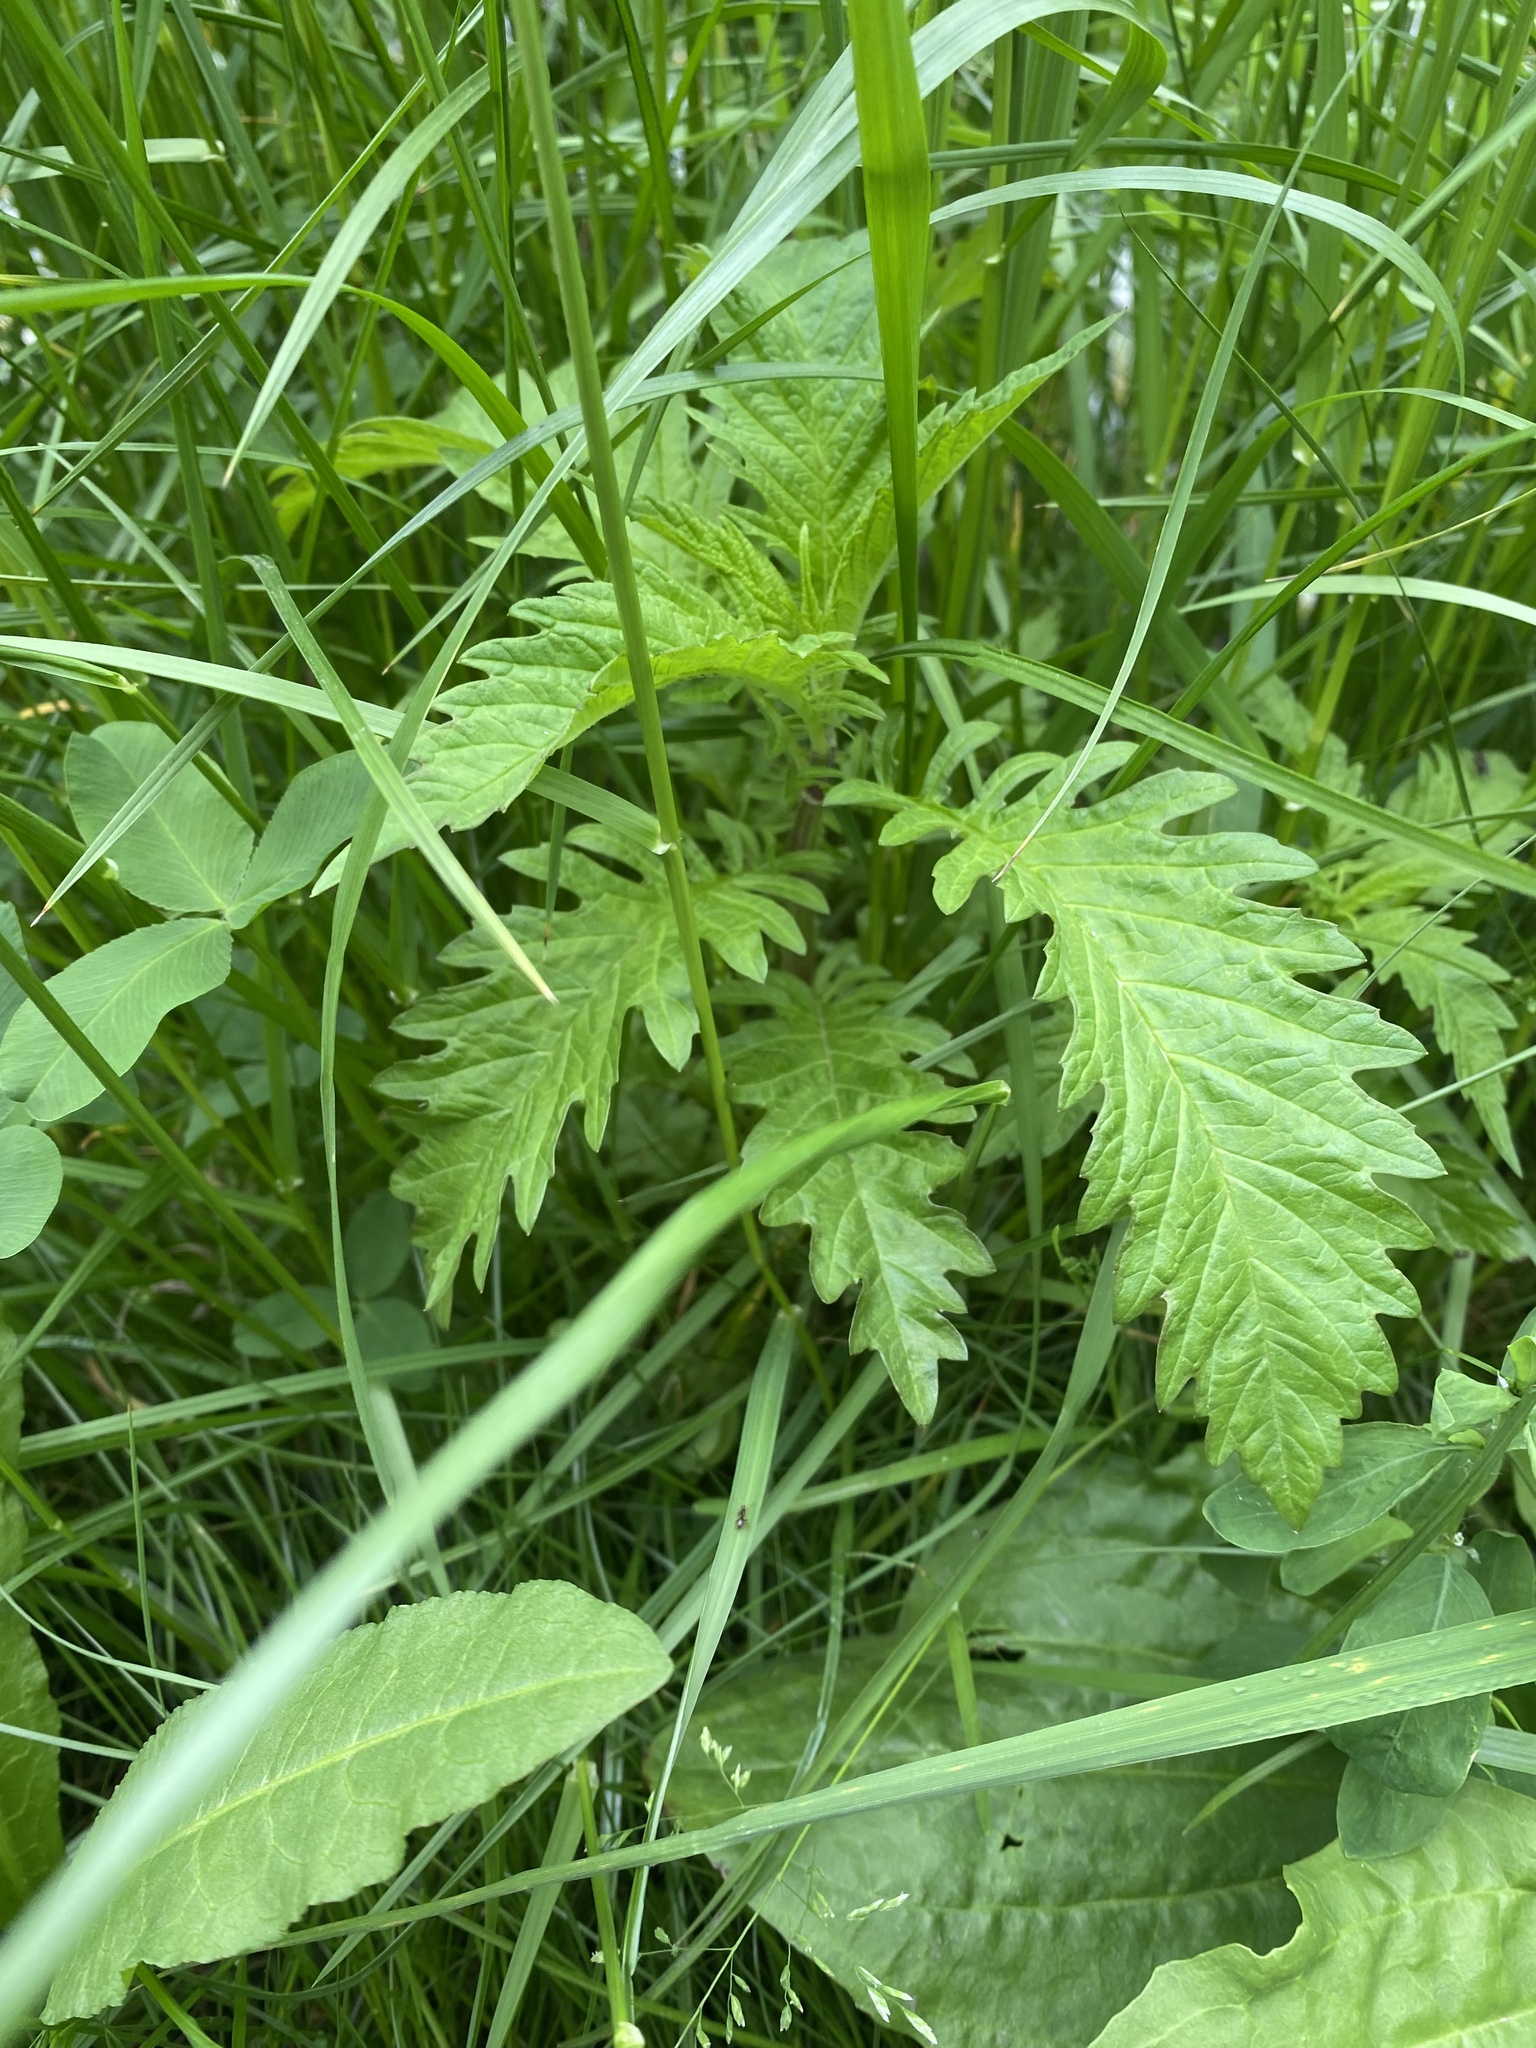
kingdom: Plantae
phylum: Tracheophyta
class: Magnoliopsida
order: Lamiales
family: Lamiaceae
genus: Lycopus
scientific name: Lycopus europaeus
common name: European bugleweed
